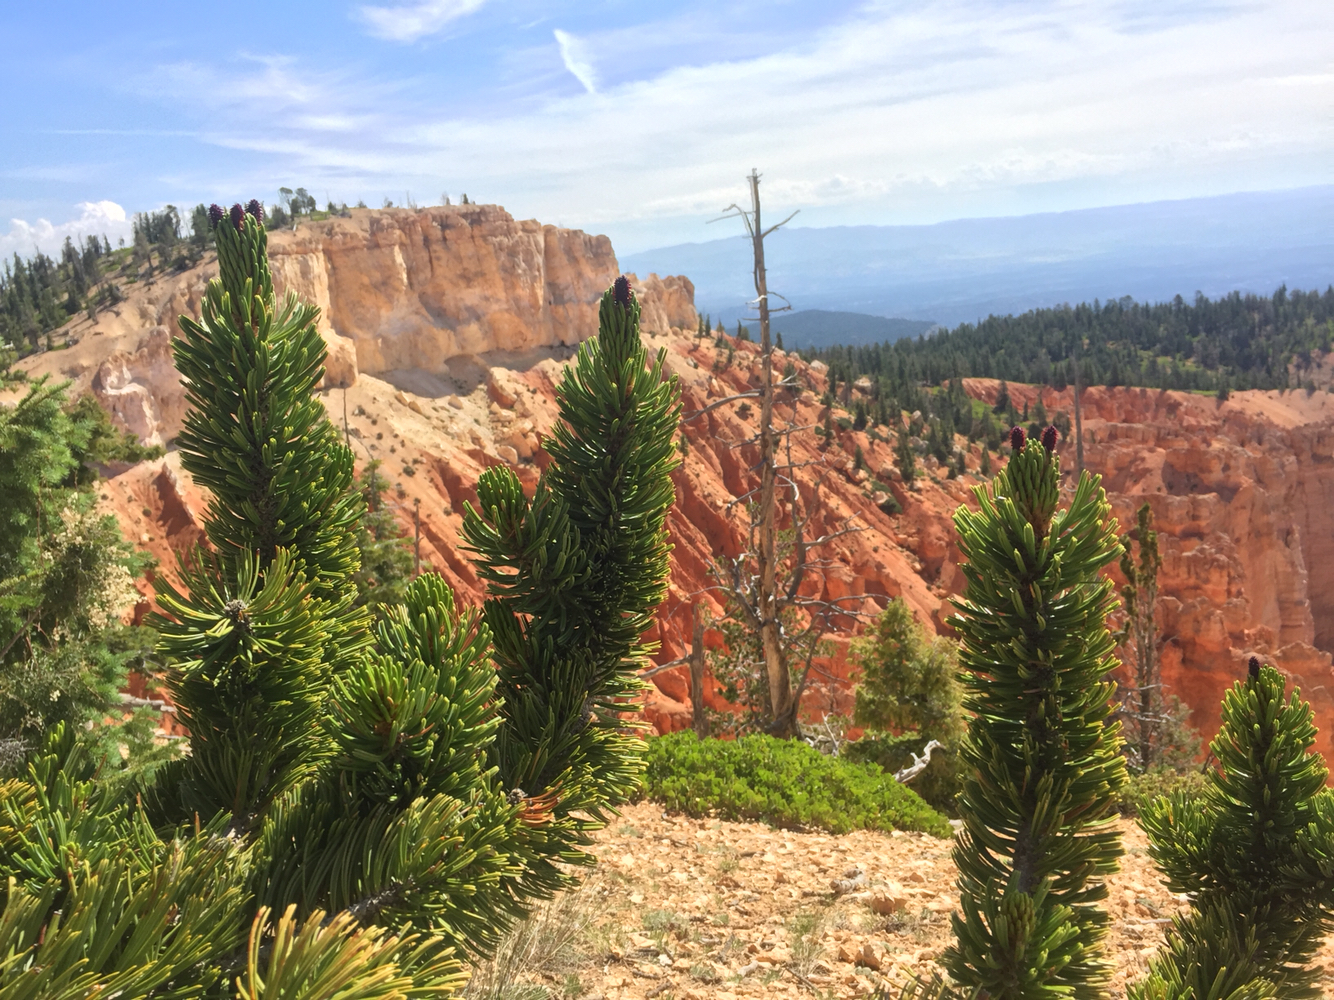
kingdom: Plantae
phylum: Tracheophyta
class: Pinopsida
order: Pinales
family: Pinaceae
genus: Pinus
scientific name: Pinus longaeva
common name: Intermountain bristlecone pine
